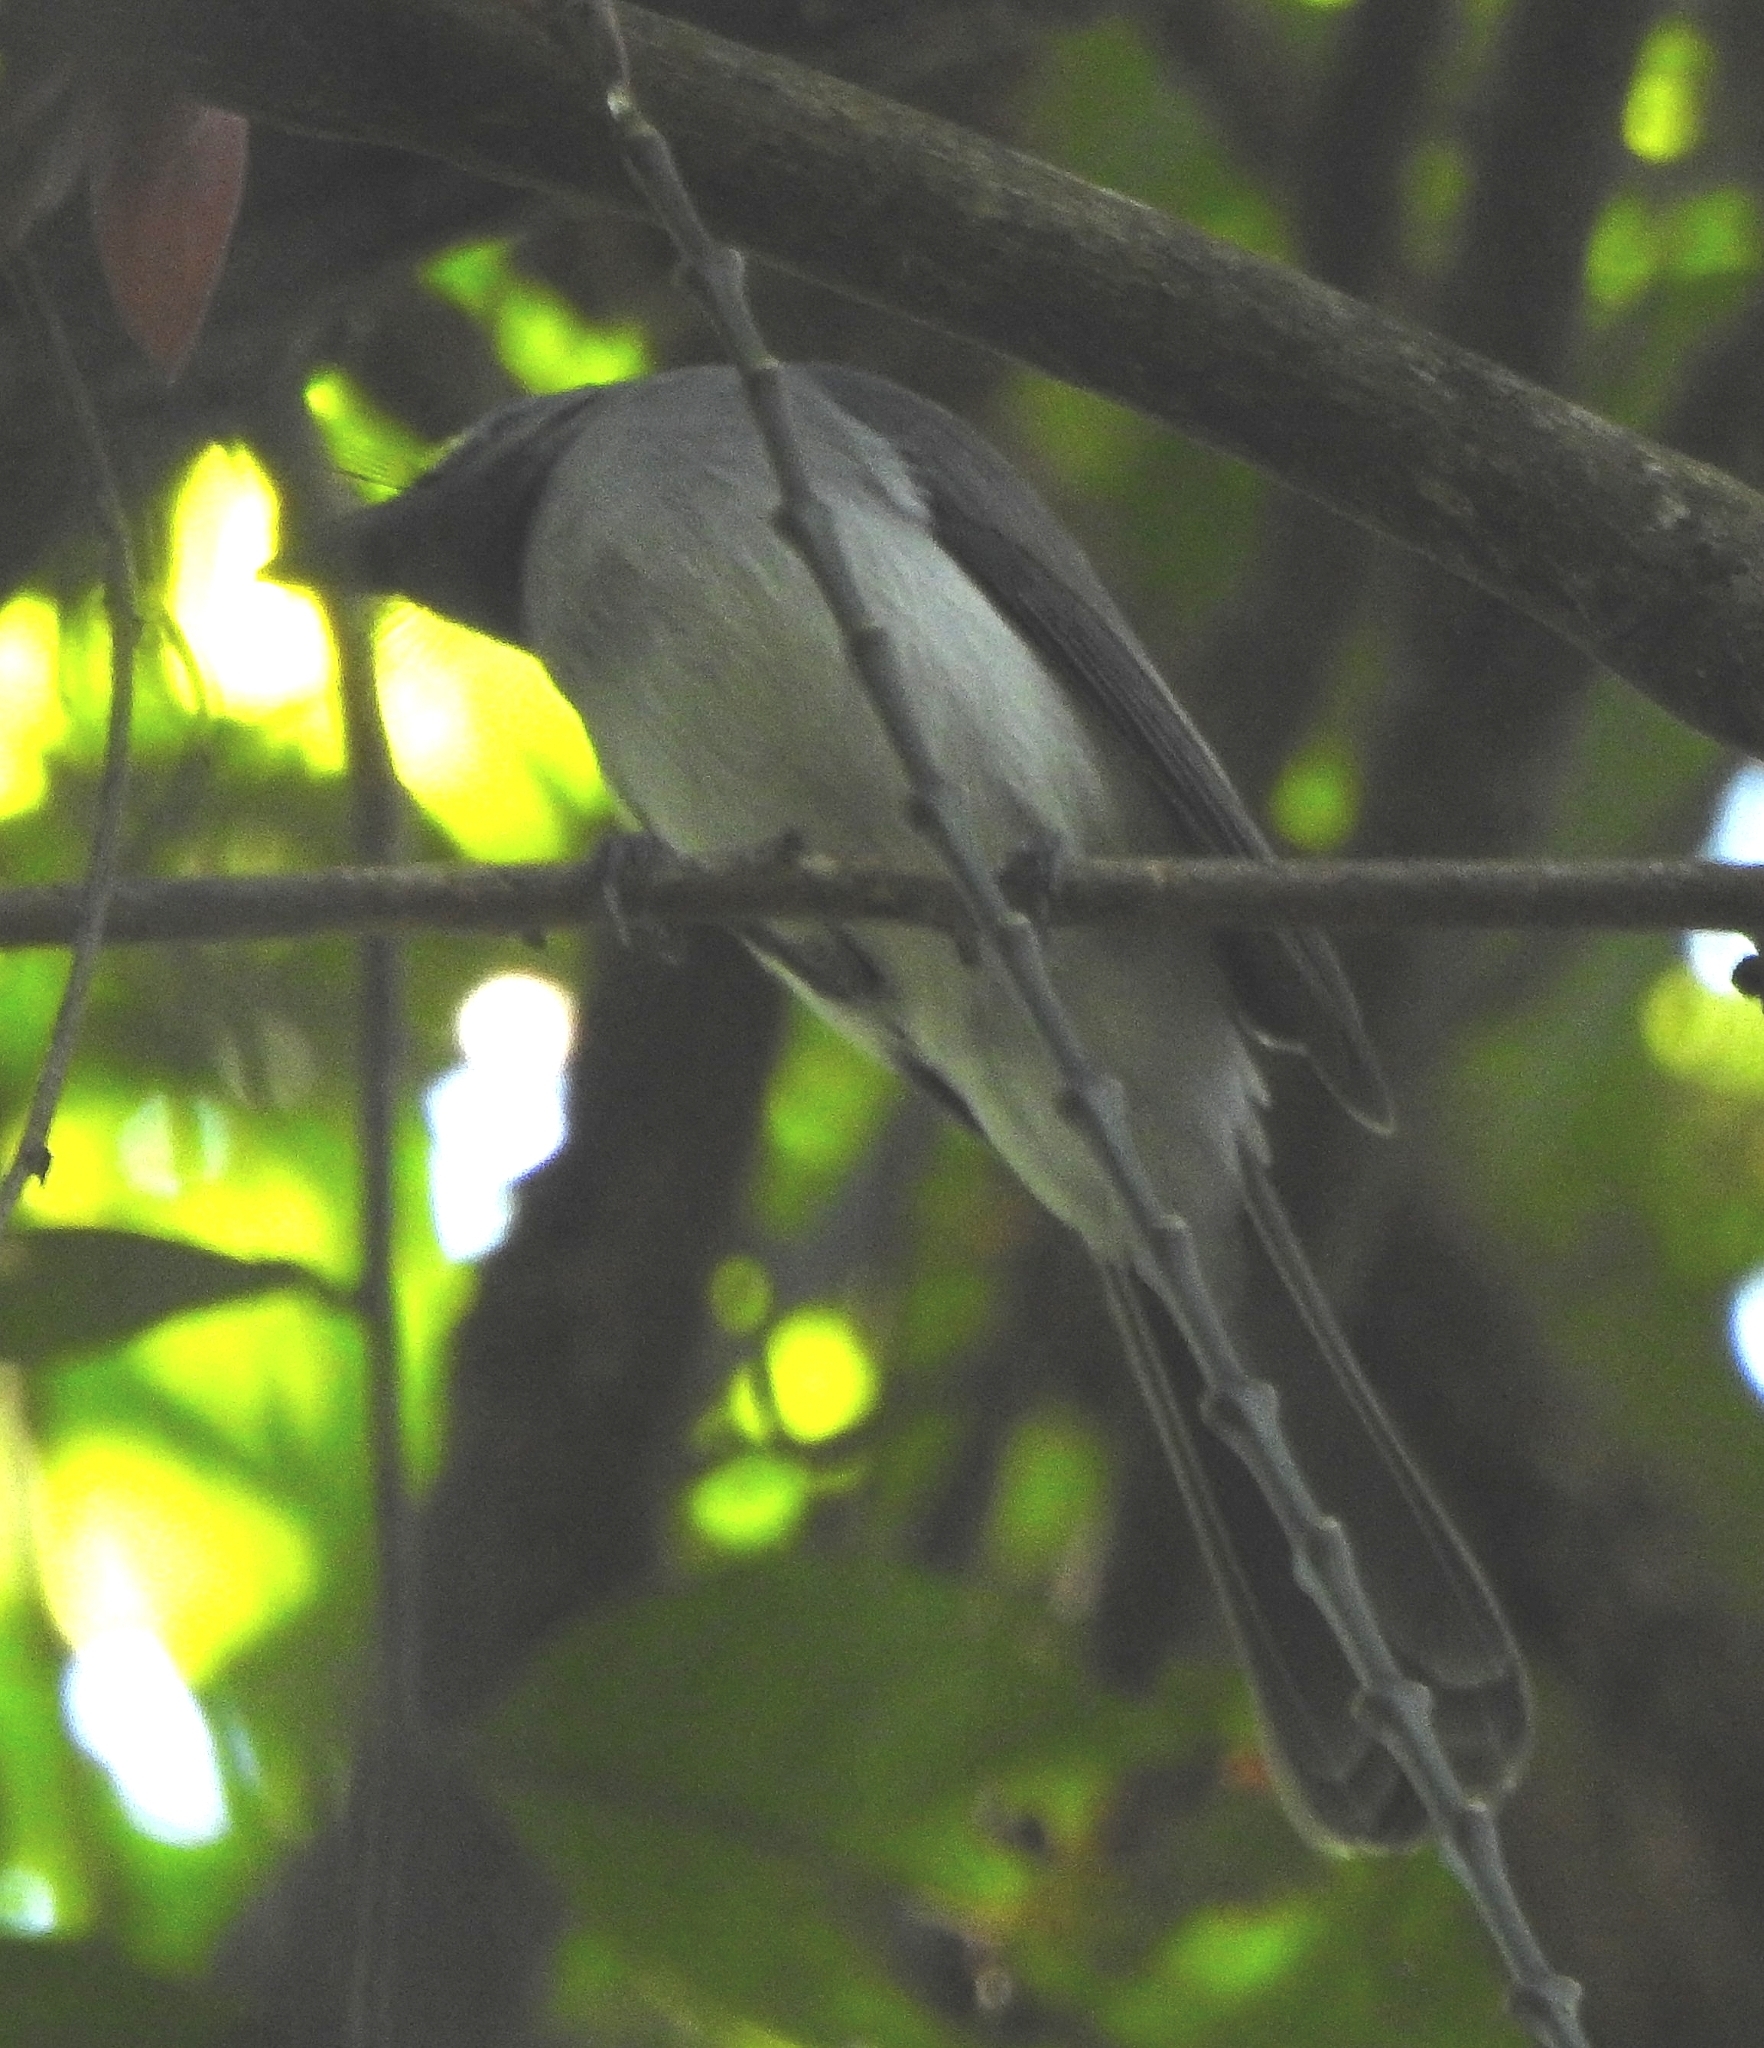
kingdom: Animalia
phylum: Chordata
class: Aves
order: Passeriformes
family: Monarchidae
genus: Hypothymis
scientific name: Hypothymis azurea
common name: Black-naped monarch
